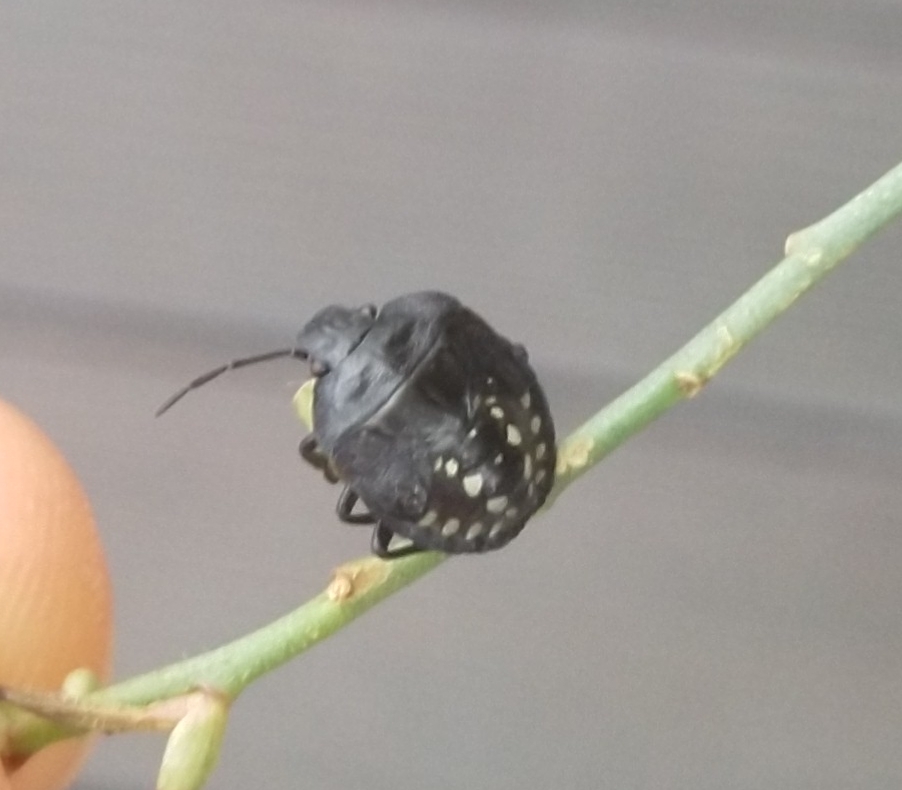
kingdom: Animalia
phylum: Arthropoda
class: Insecta
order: Hemiptera
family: Pentatomidae
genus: Nezara
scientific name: Nezara viridula
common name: Southern green stink bug
